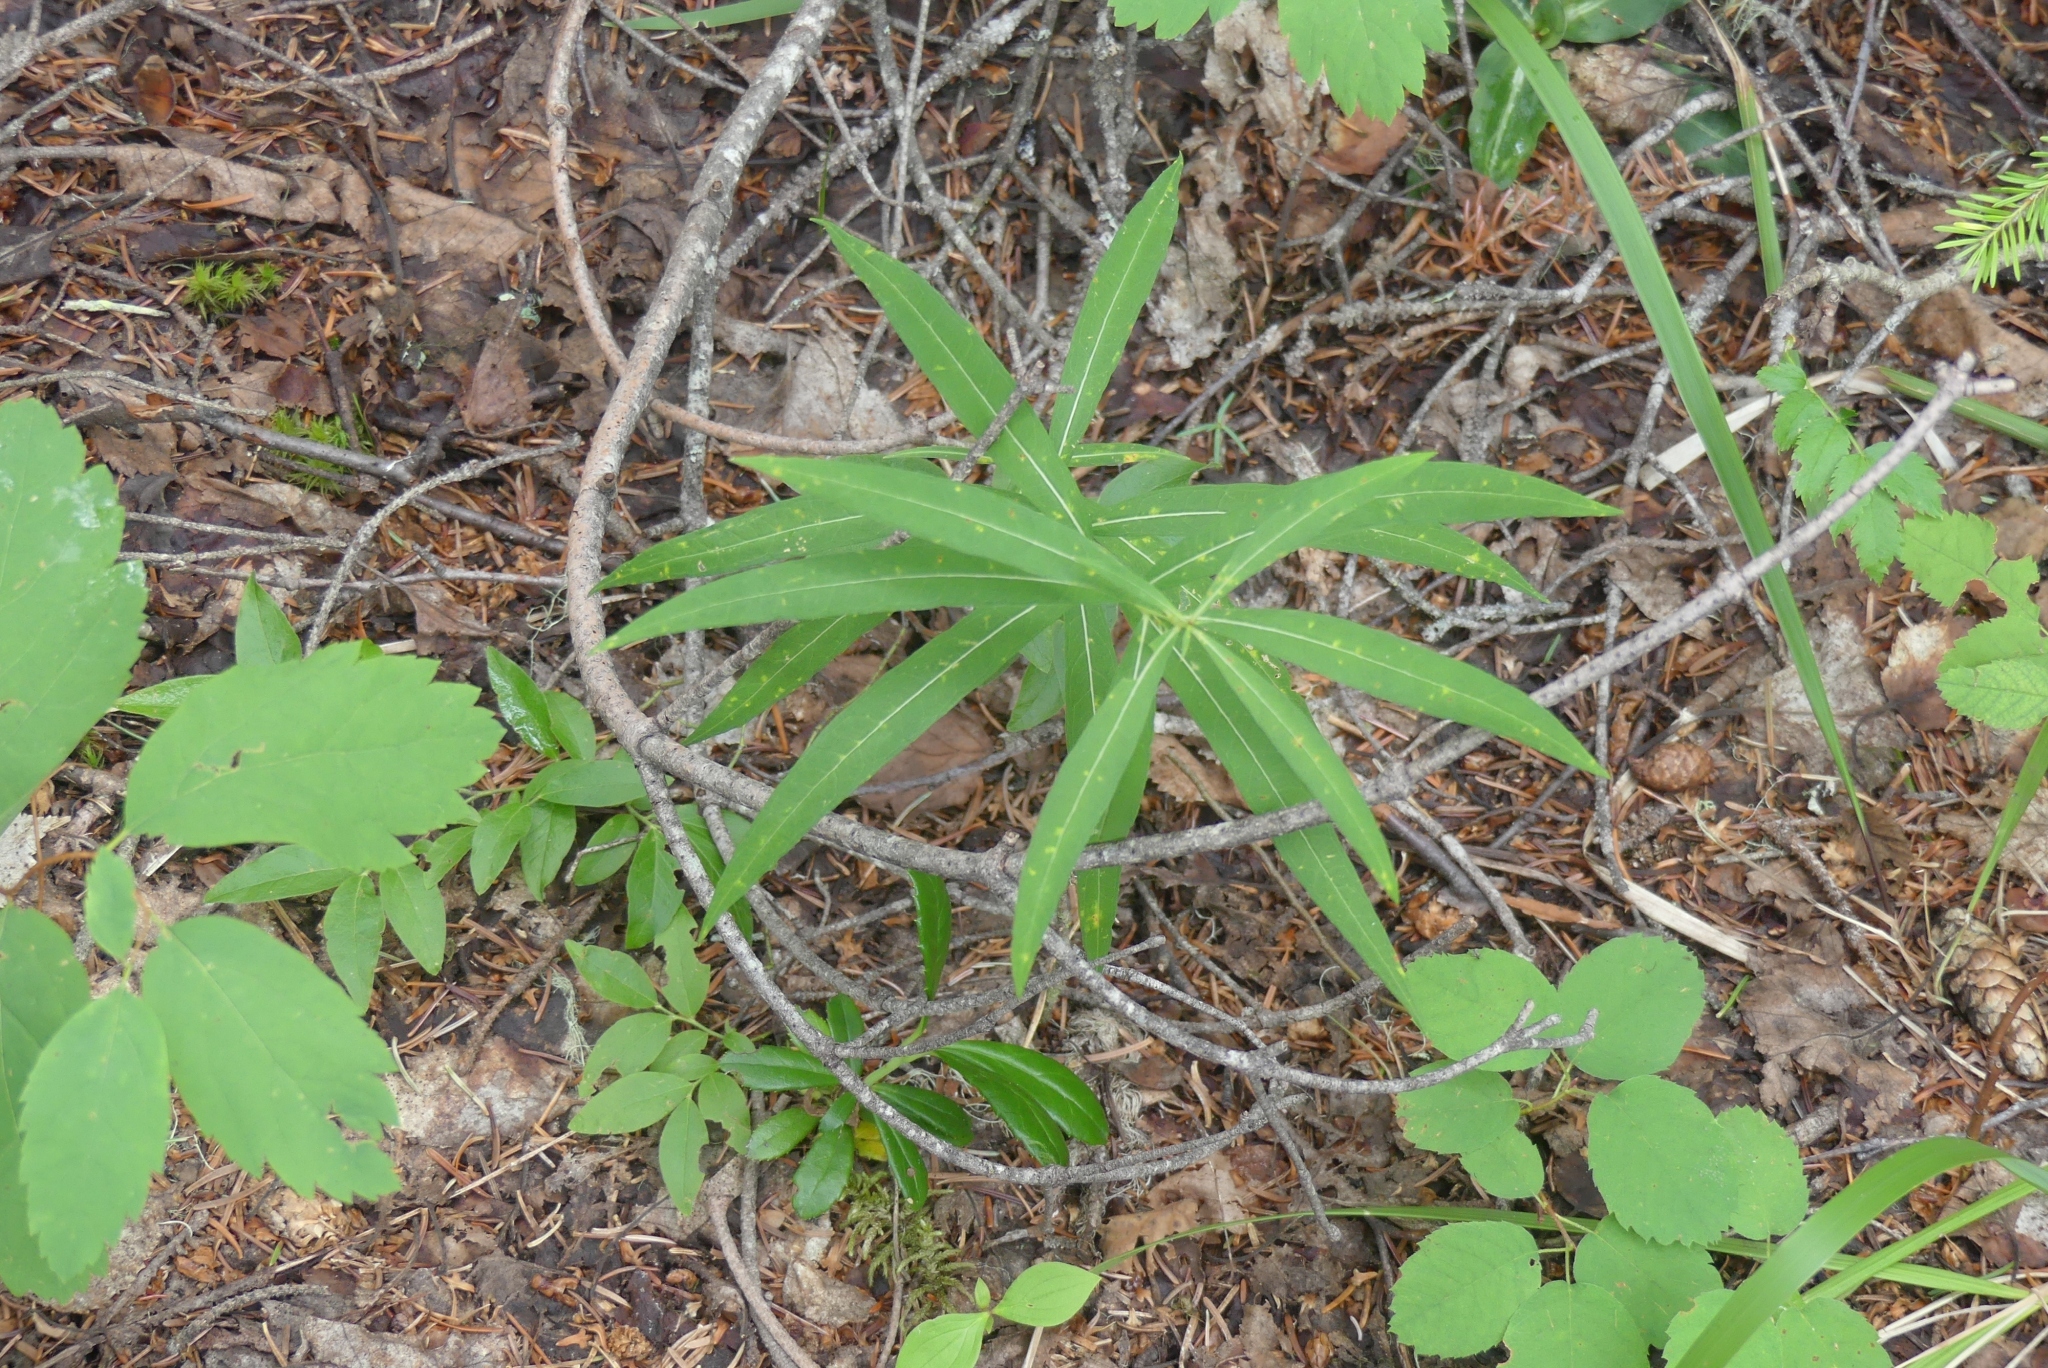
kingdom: Plantae
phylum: Tracheophyta
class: Magnoliopsida
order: Myrtales
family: Onagraceae
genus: Chamaenerion
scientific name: Chamaenerion angustifolium
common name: Fireweed
